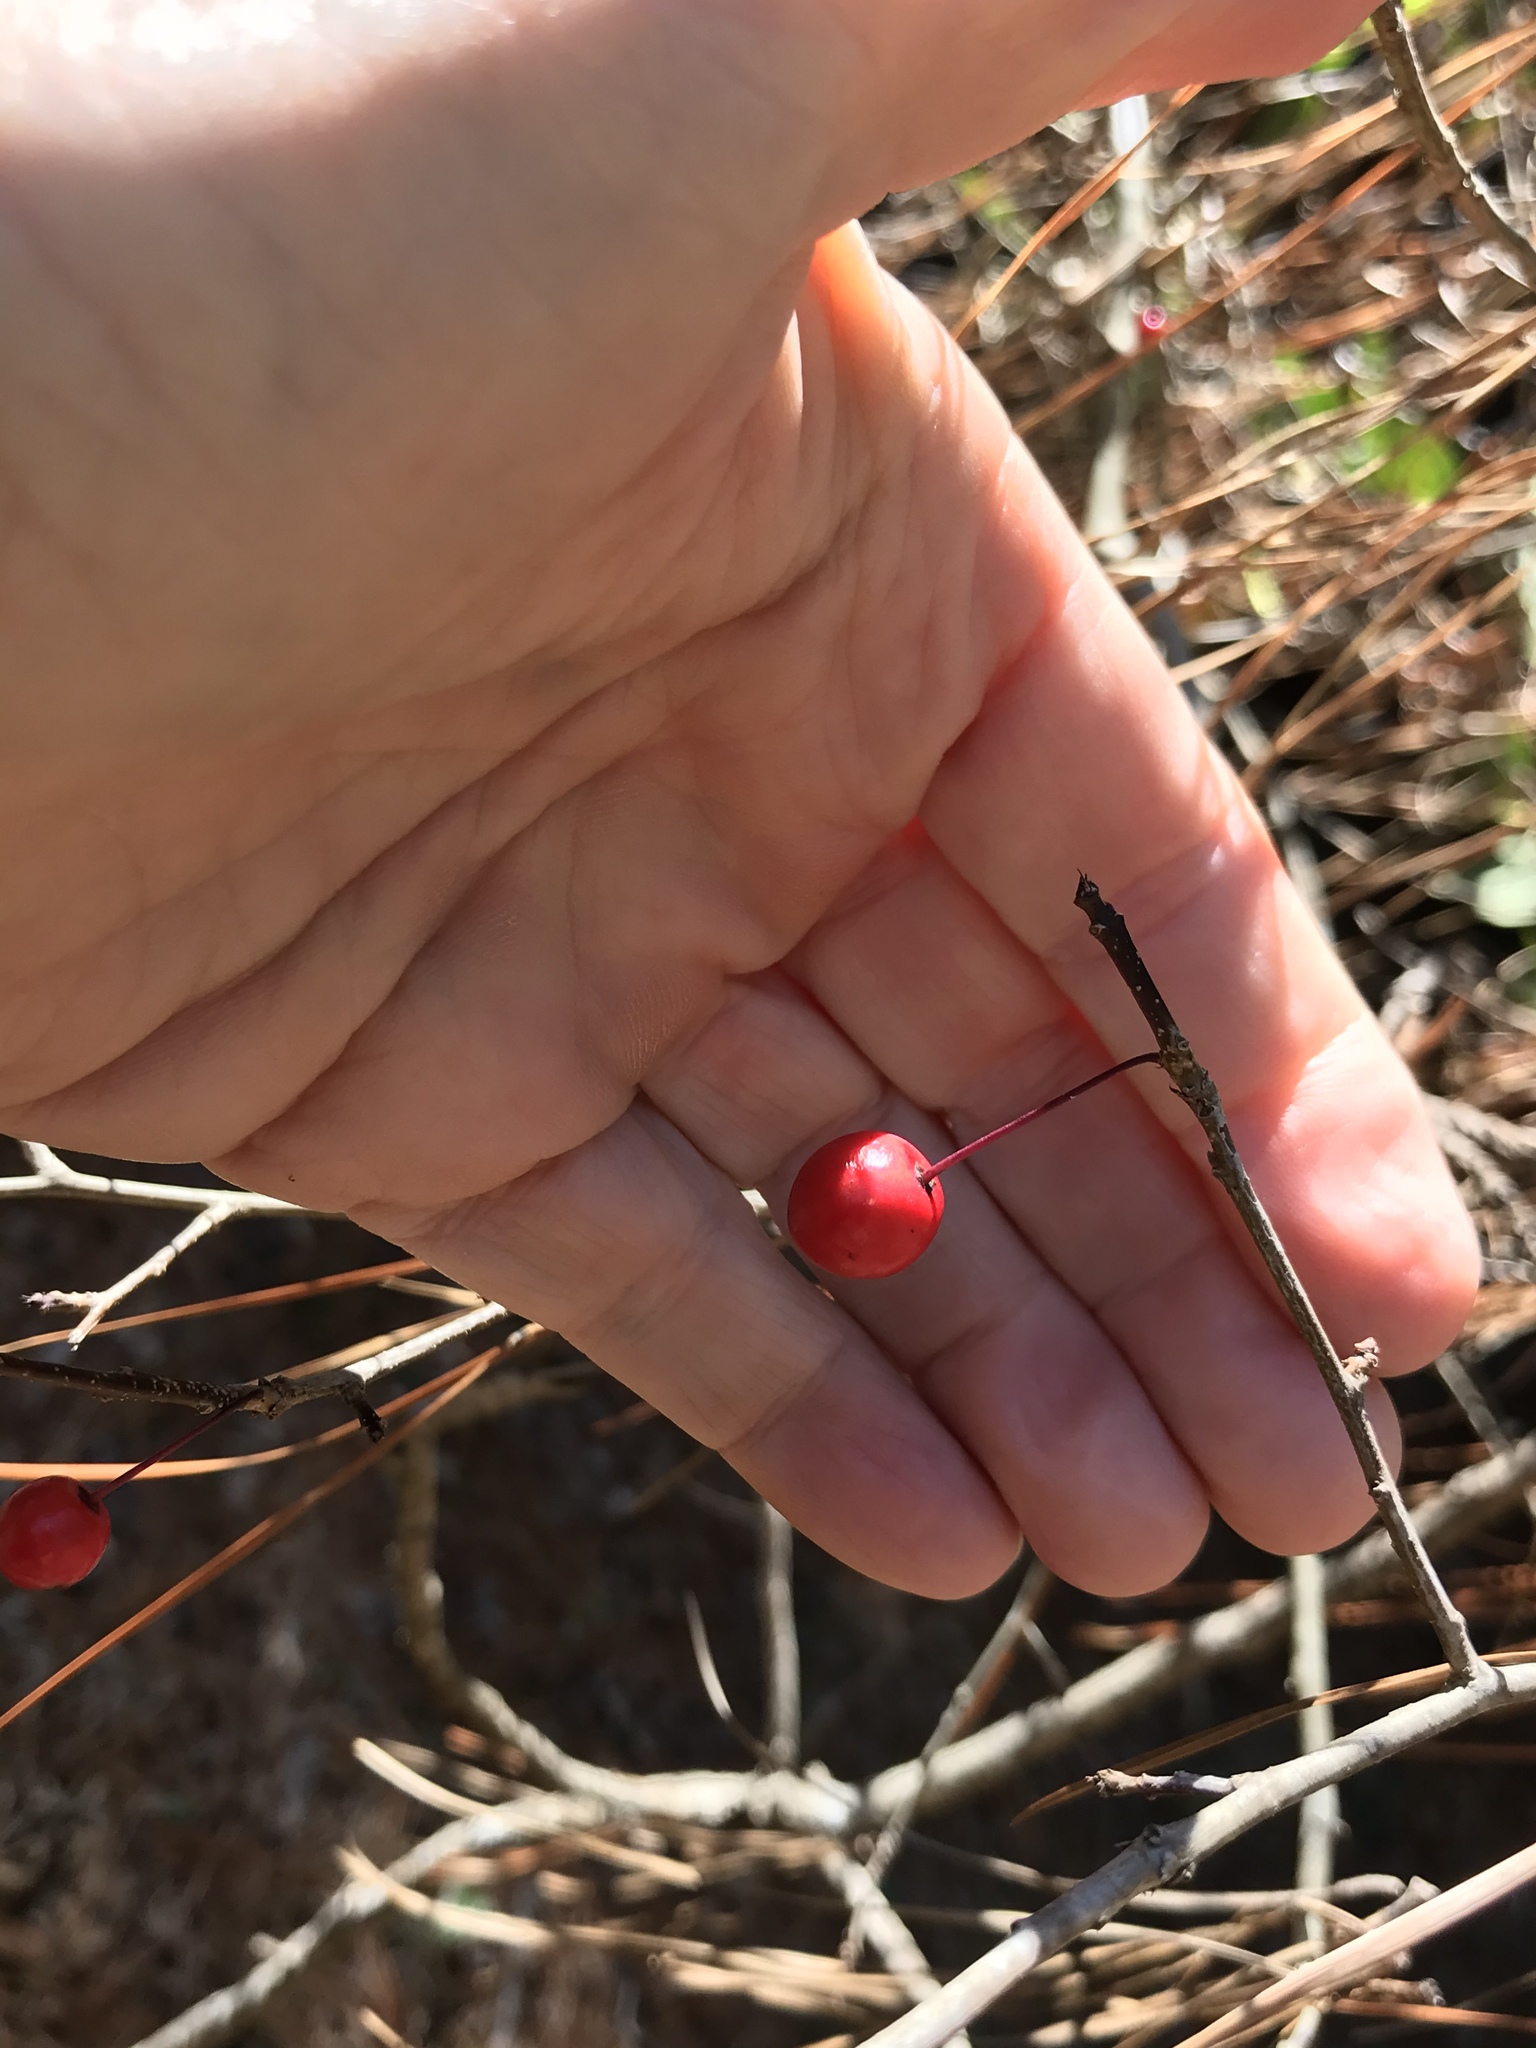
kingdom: Plantae
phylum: Tracheophyta
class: Magnoliopsida
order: Aquifoliales
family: Aquifoliaceae
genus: Ilex
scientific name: Ilex longipes
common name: Georgia holly
